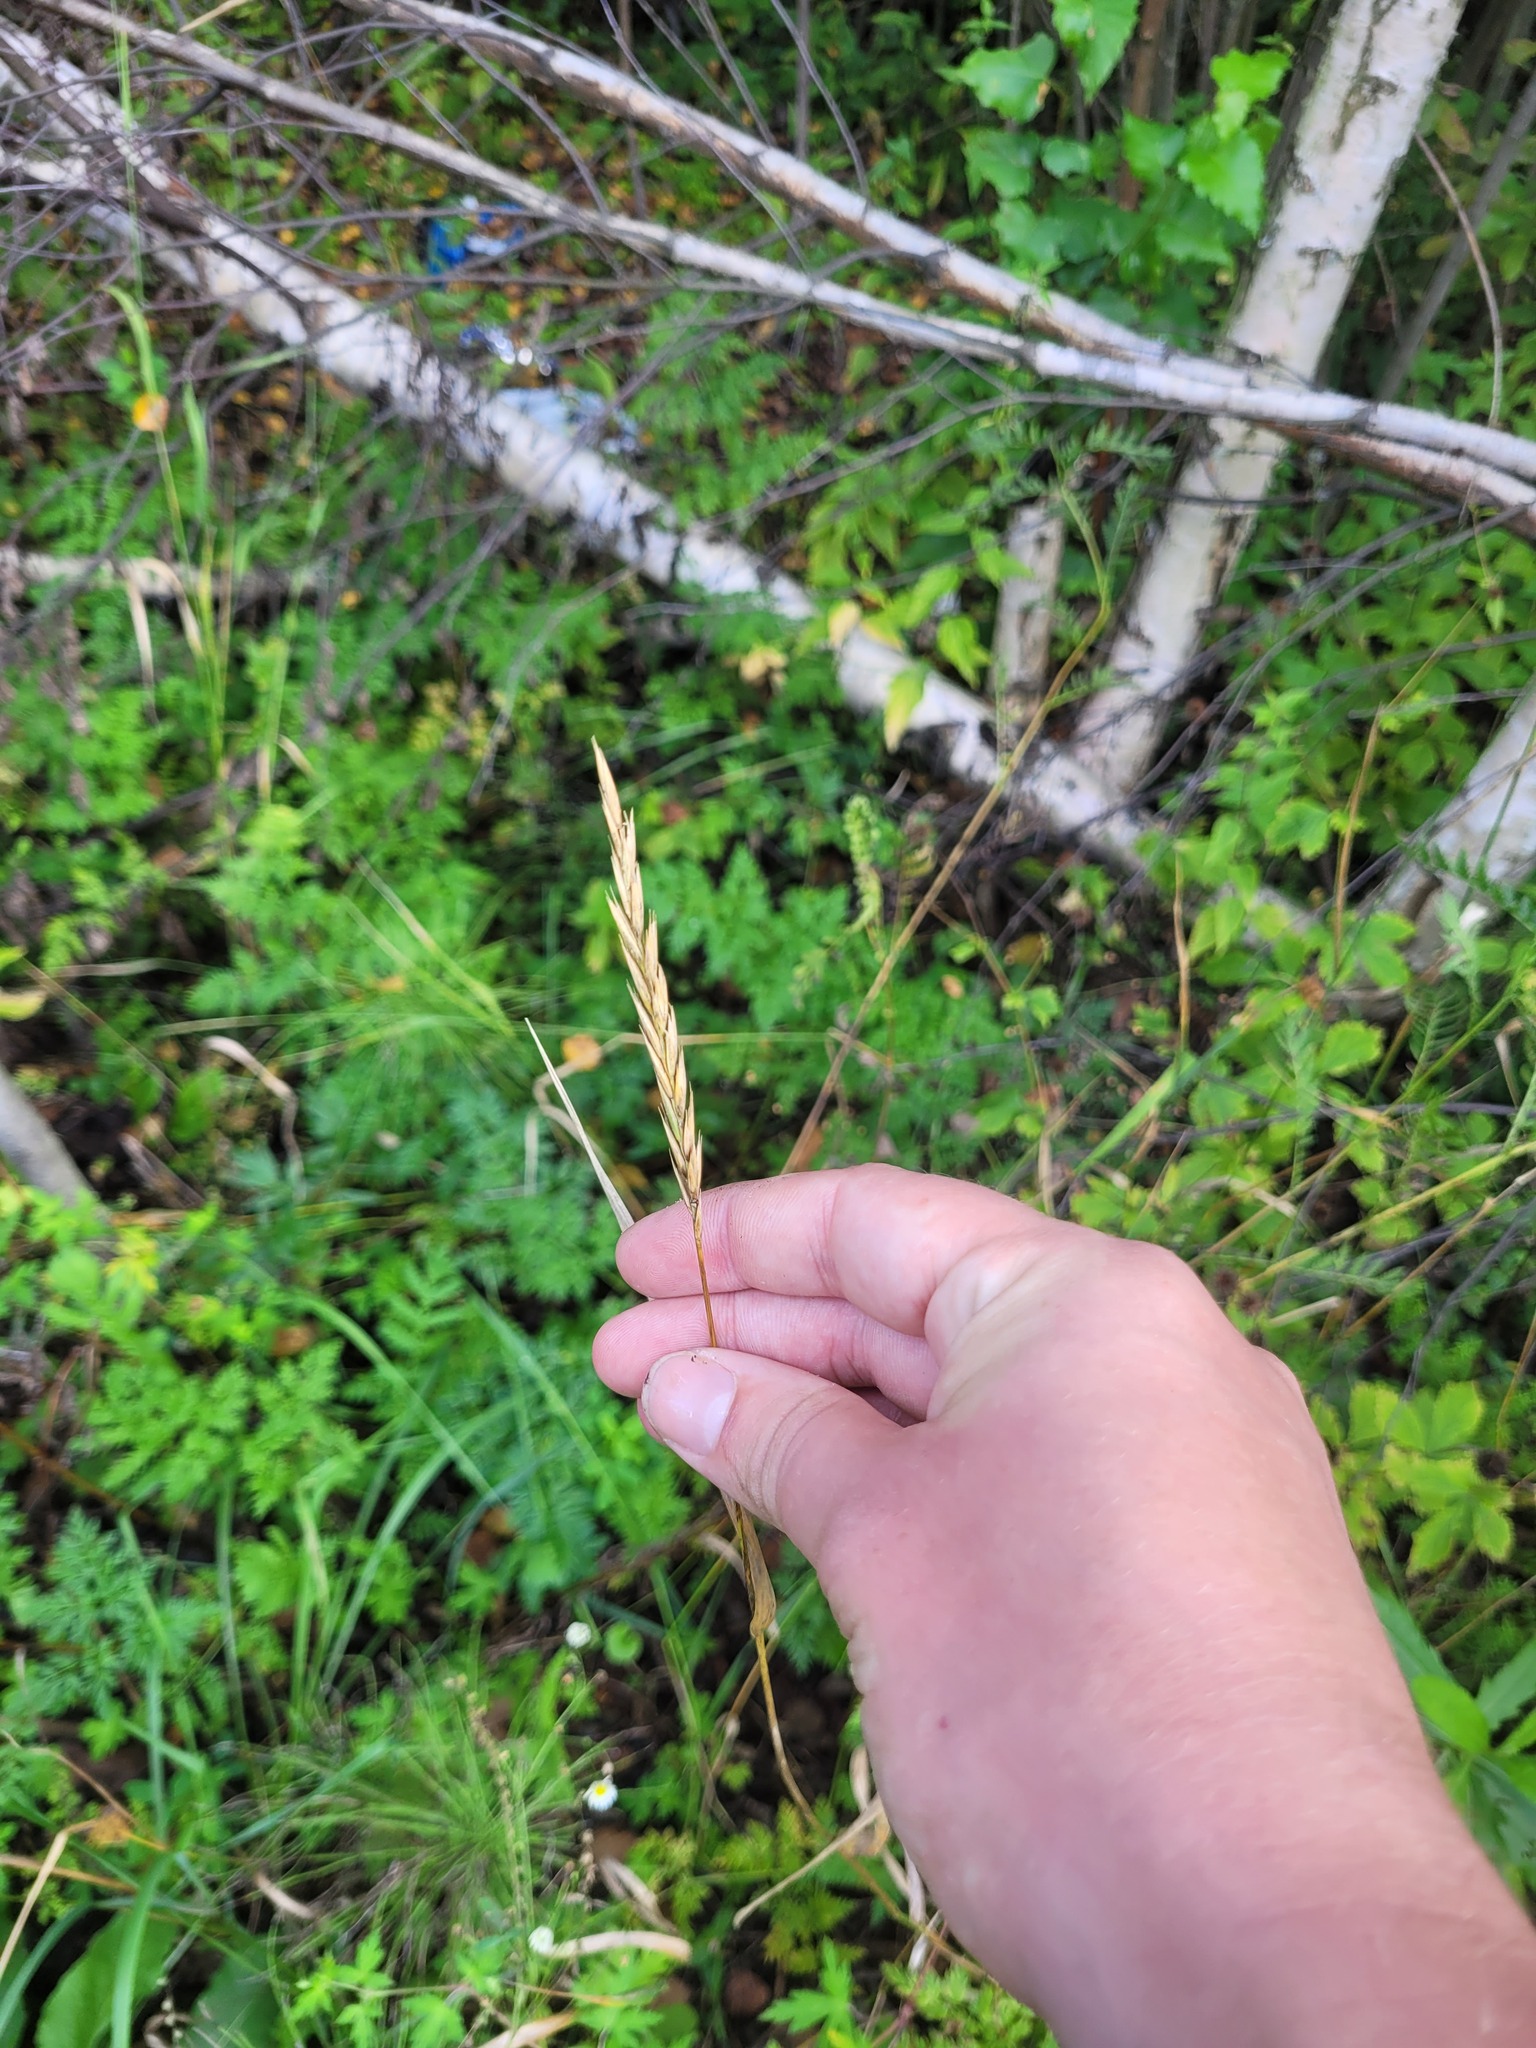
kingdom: Plantae
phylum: Tracheophyta
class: Liliopsida
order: Poales
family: Poaceae
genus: Elymus
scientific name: Elymus repens
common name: Quackgrass
